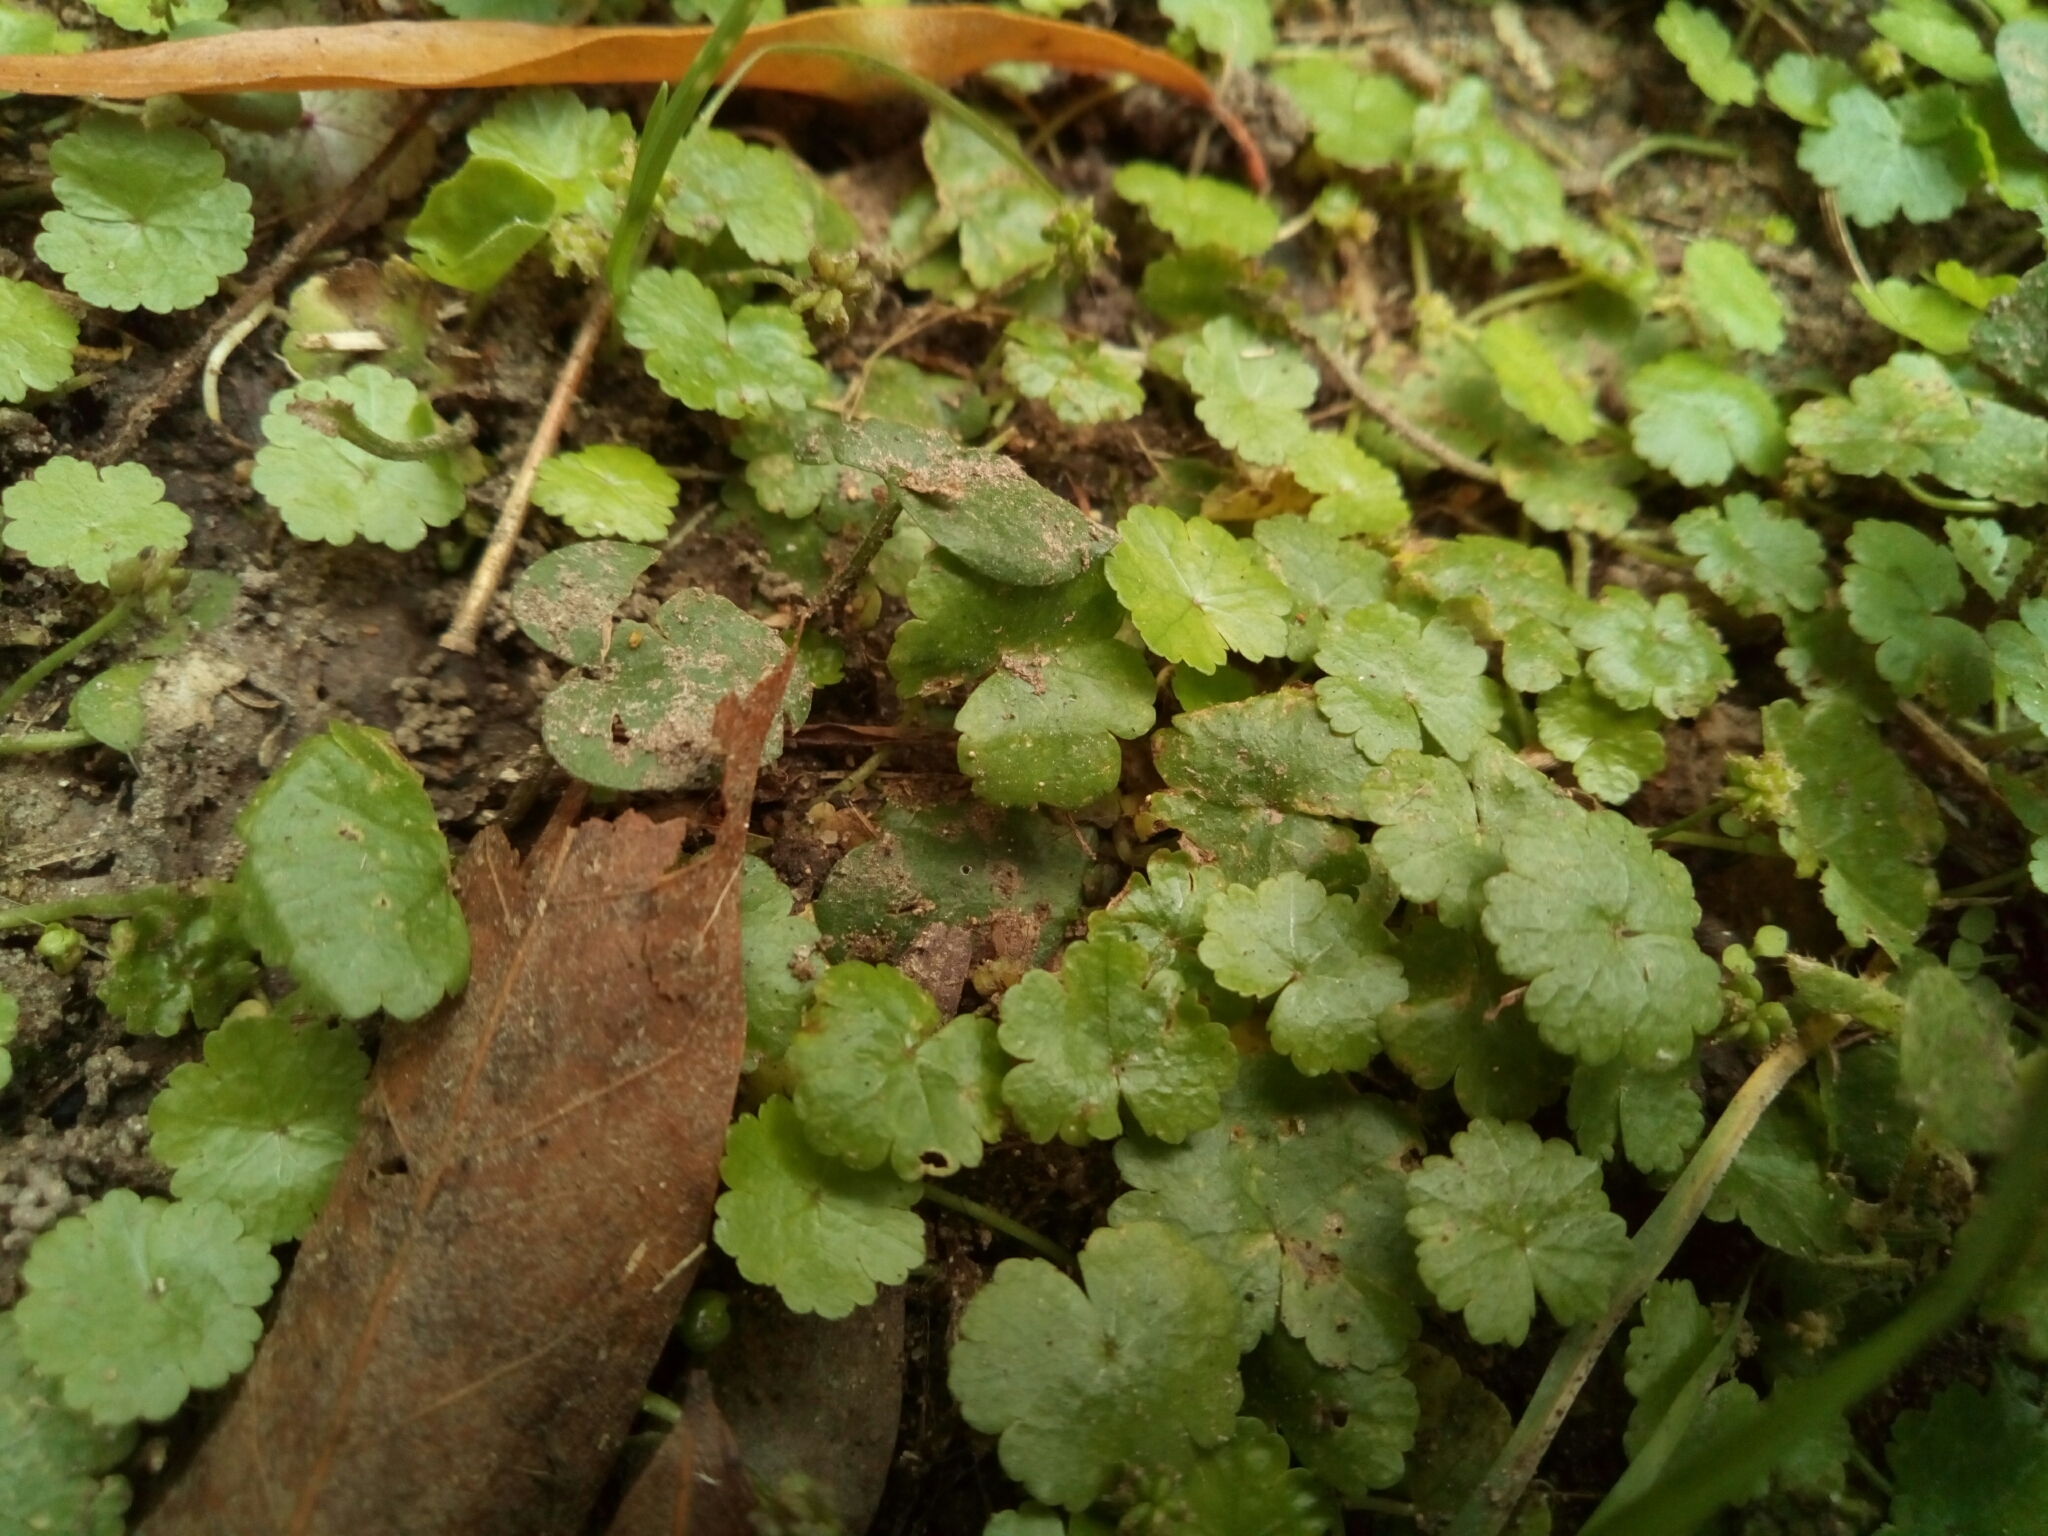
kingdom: Plantae
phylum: Tracheophyta
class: Magnoliopsida
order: Apiales
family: Araliaceae
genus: Hydrocotyle
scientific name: Hydrocotyle sibthorpioides
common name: Lawn marshpennywort
